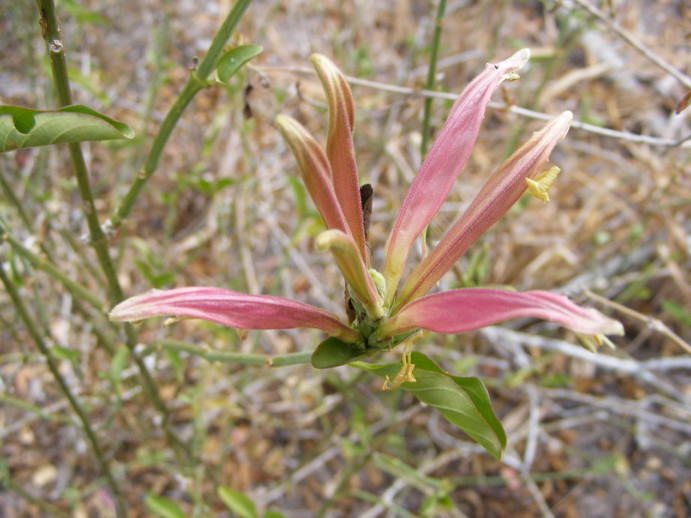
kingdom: Plantae
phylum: Tracheophyta
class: Magnoliopsida
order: Lamiales
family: Acanthaceae
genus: Anisotes
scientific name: Anisotes formosissimus
